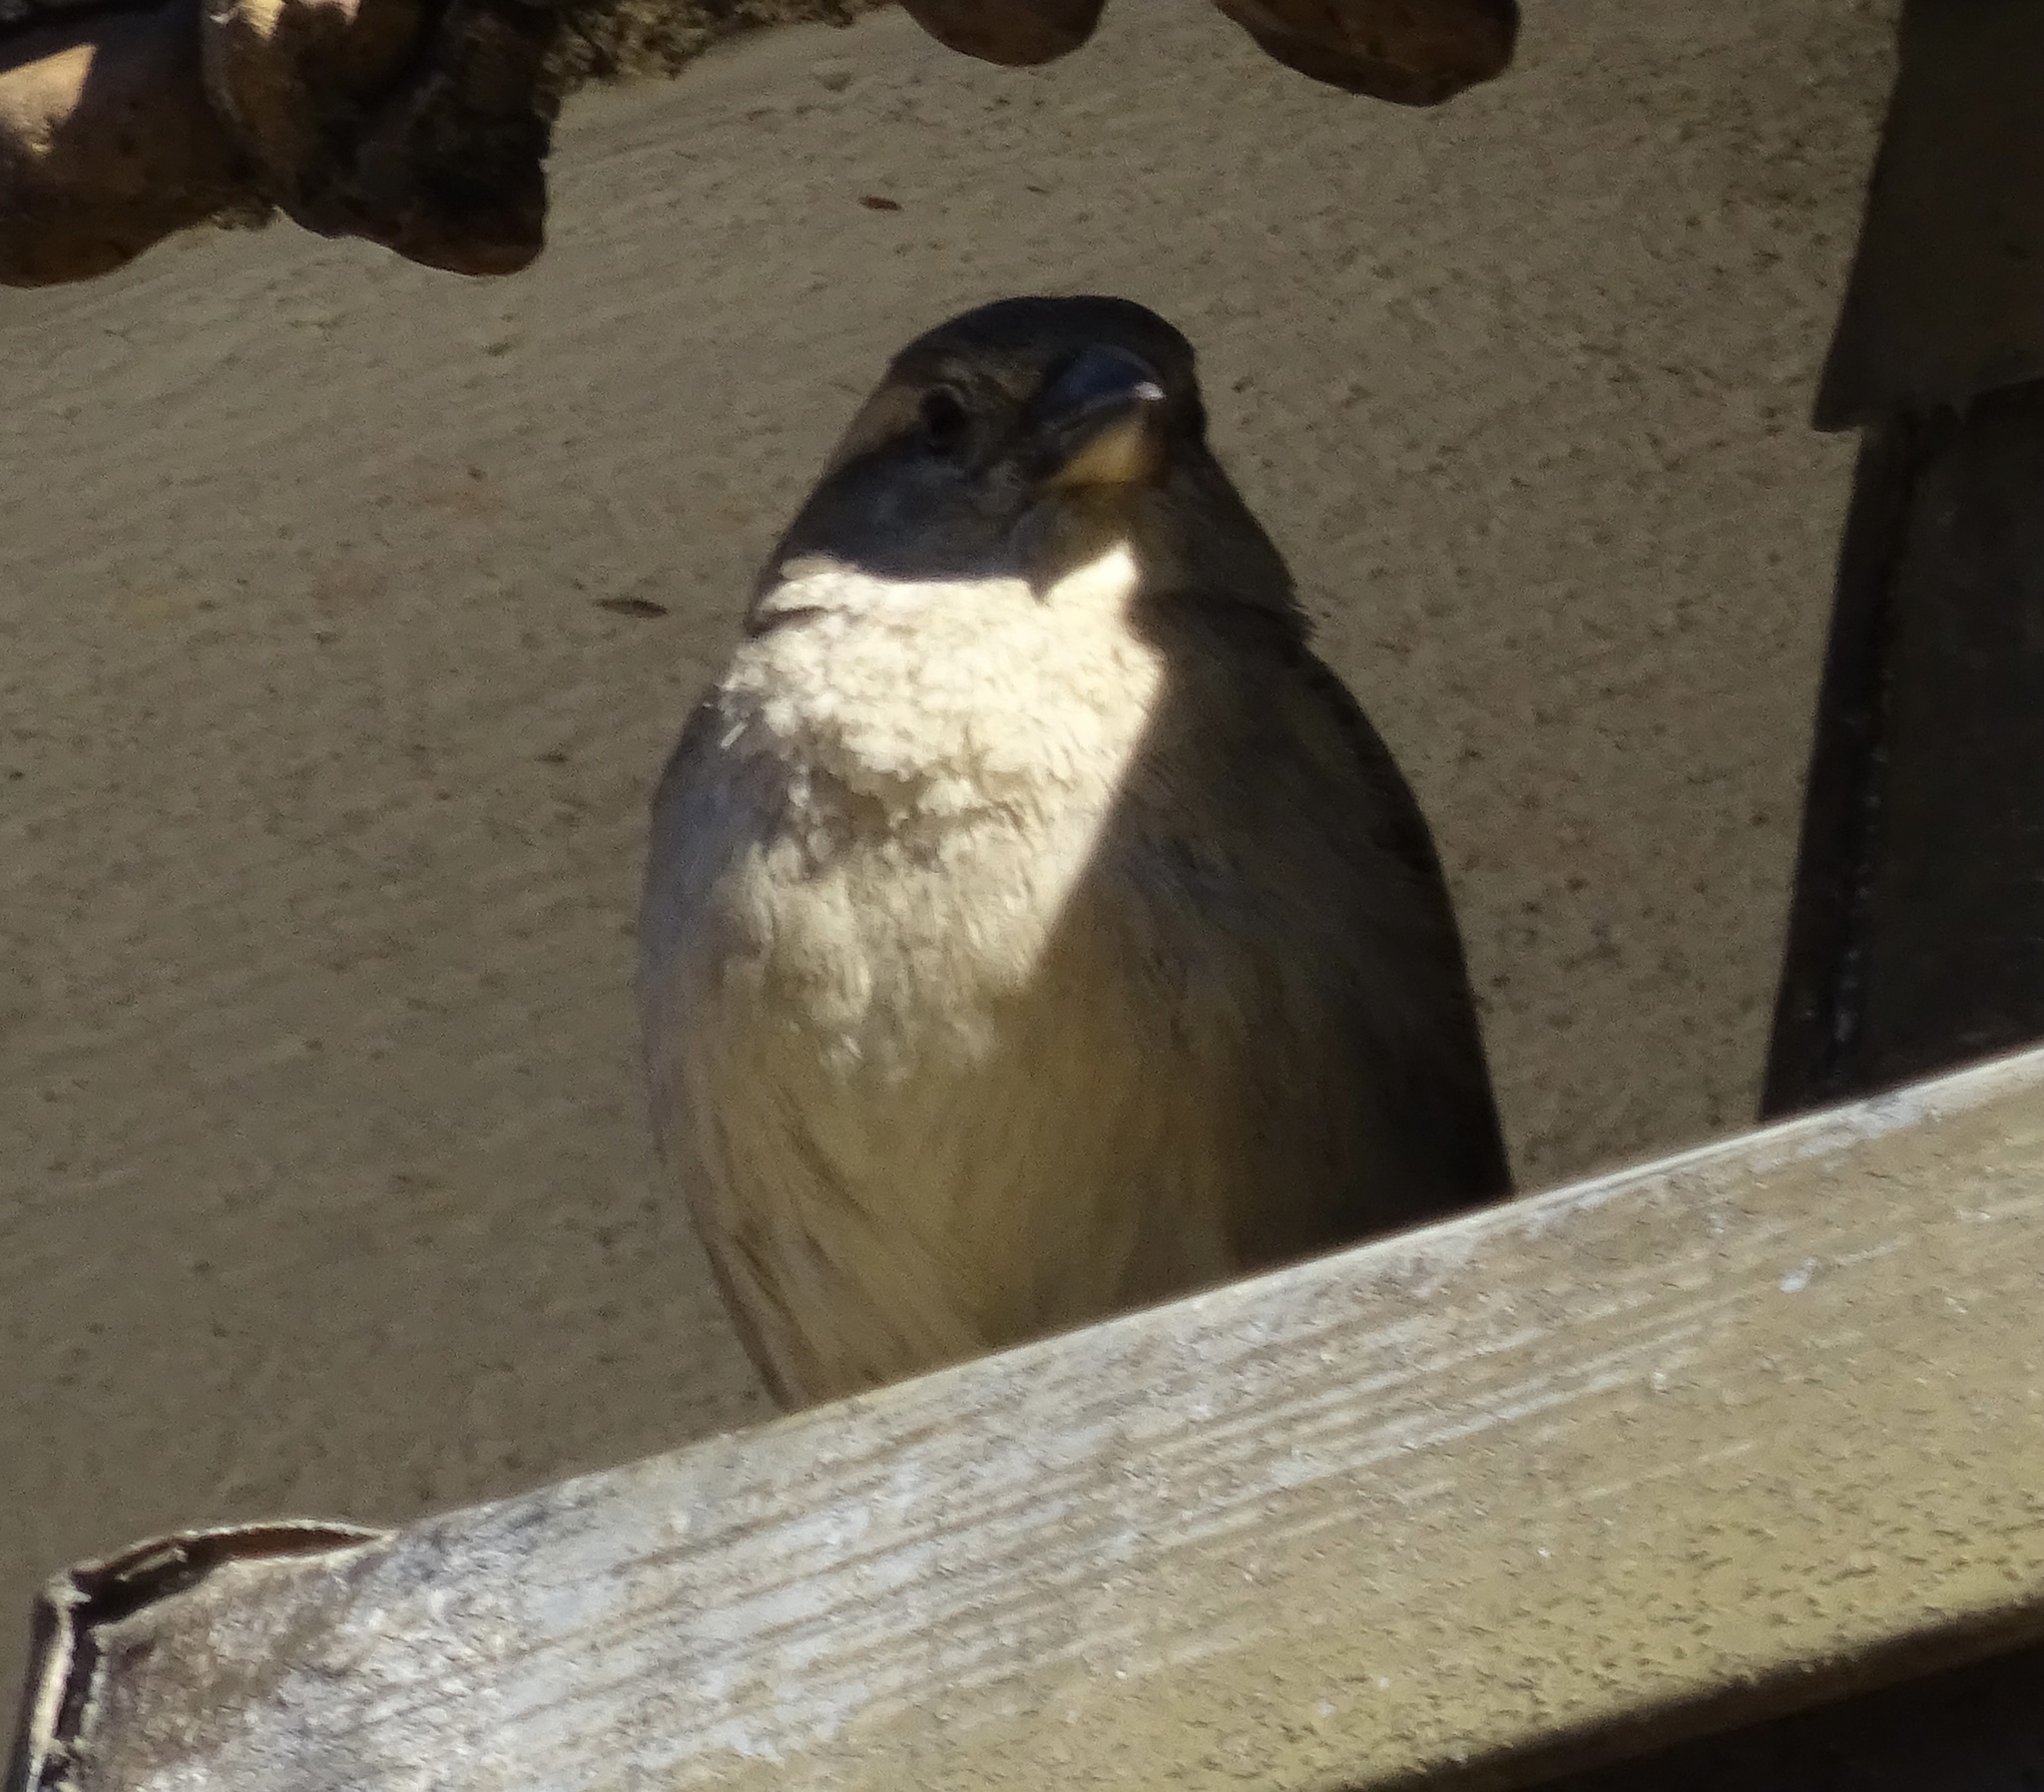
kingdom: Animalia
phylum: Chordata
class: Aves
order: Passeriformes
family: Passeridae
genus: Passer
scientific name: Passer domesticus
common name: House sparrow
